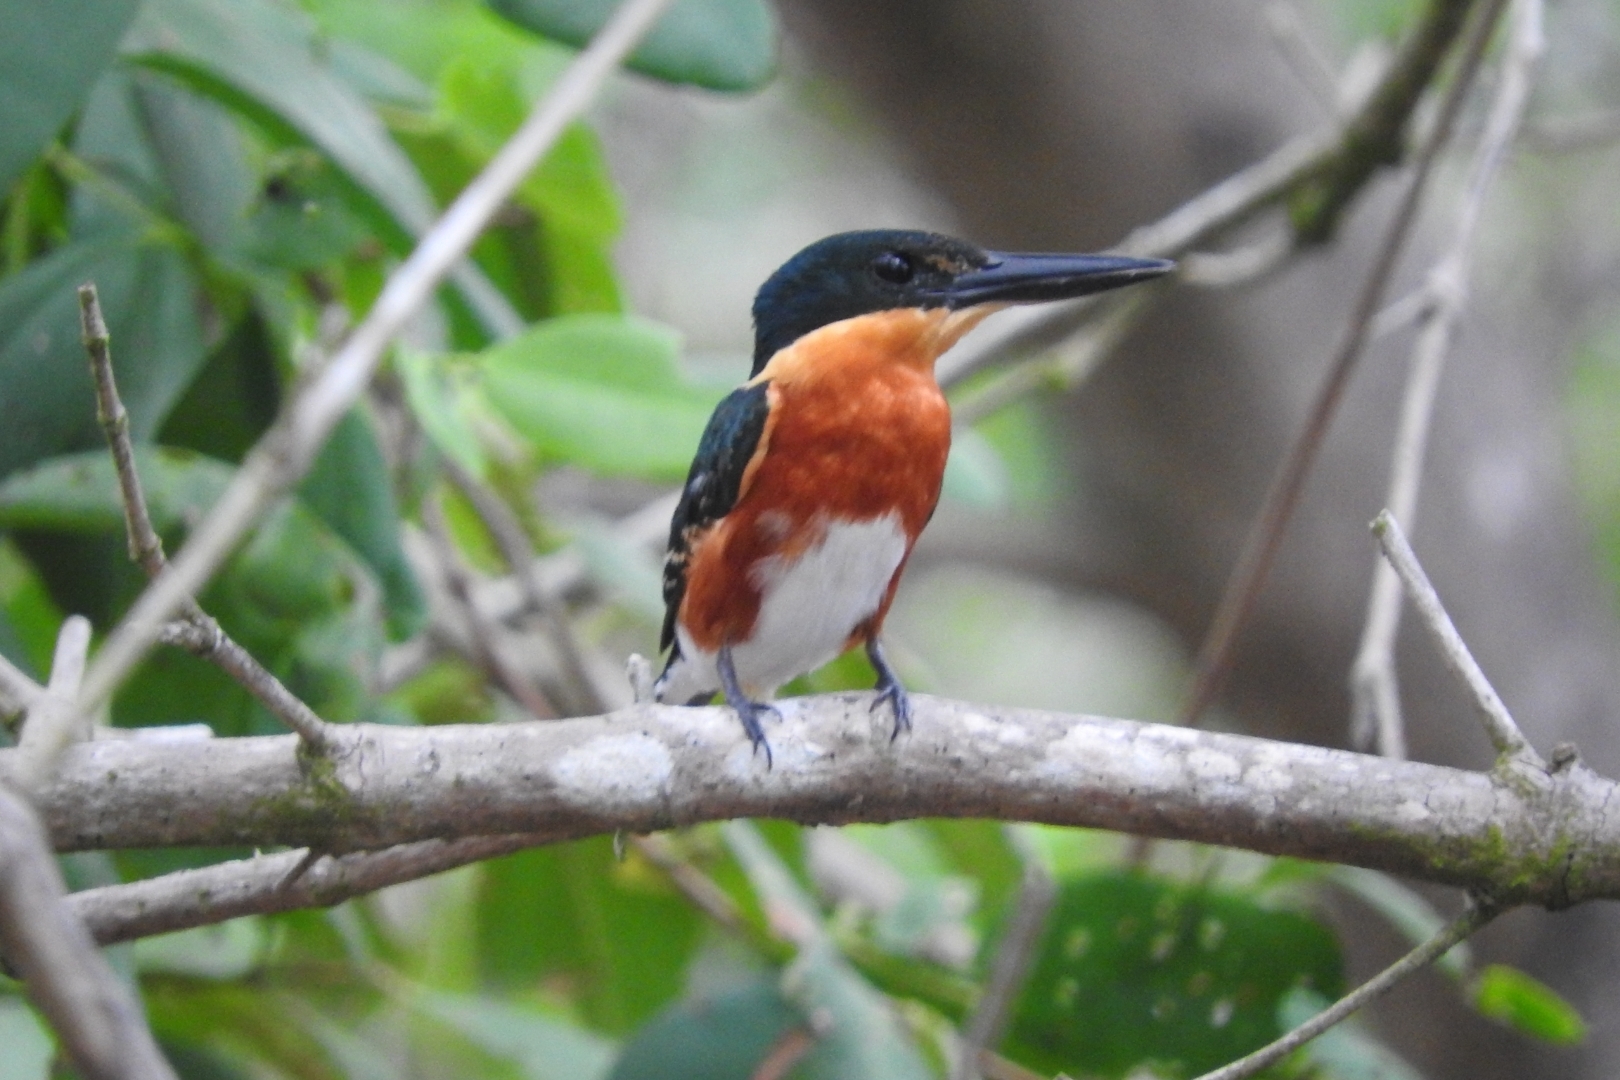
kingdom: Animalia
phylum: Chordata
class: Aves
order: Coraciiformes
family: Alcedinidae
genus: Chloroceryle
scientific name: Chloroceryle aenea
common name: American pygmy kingfisher
